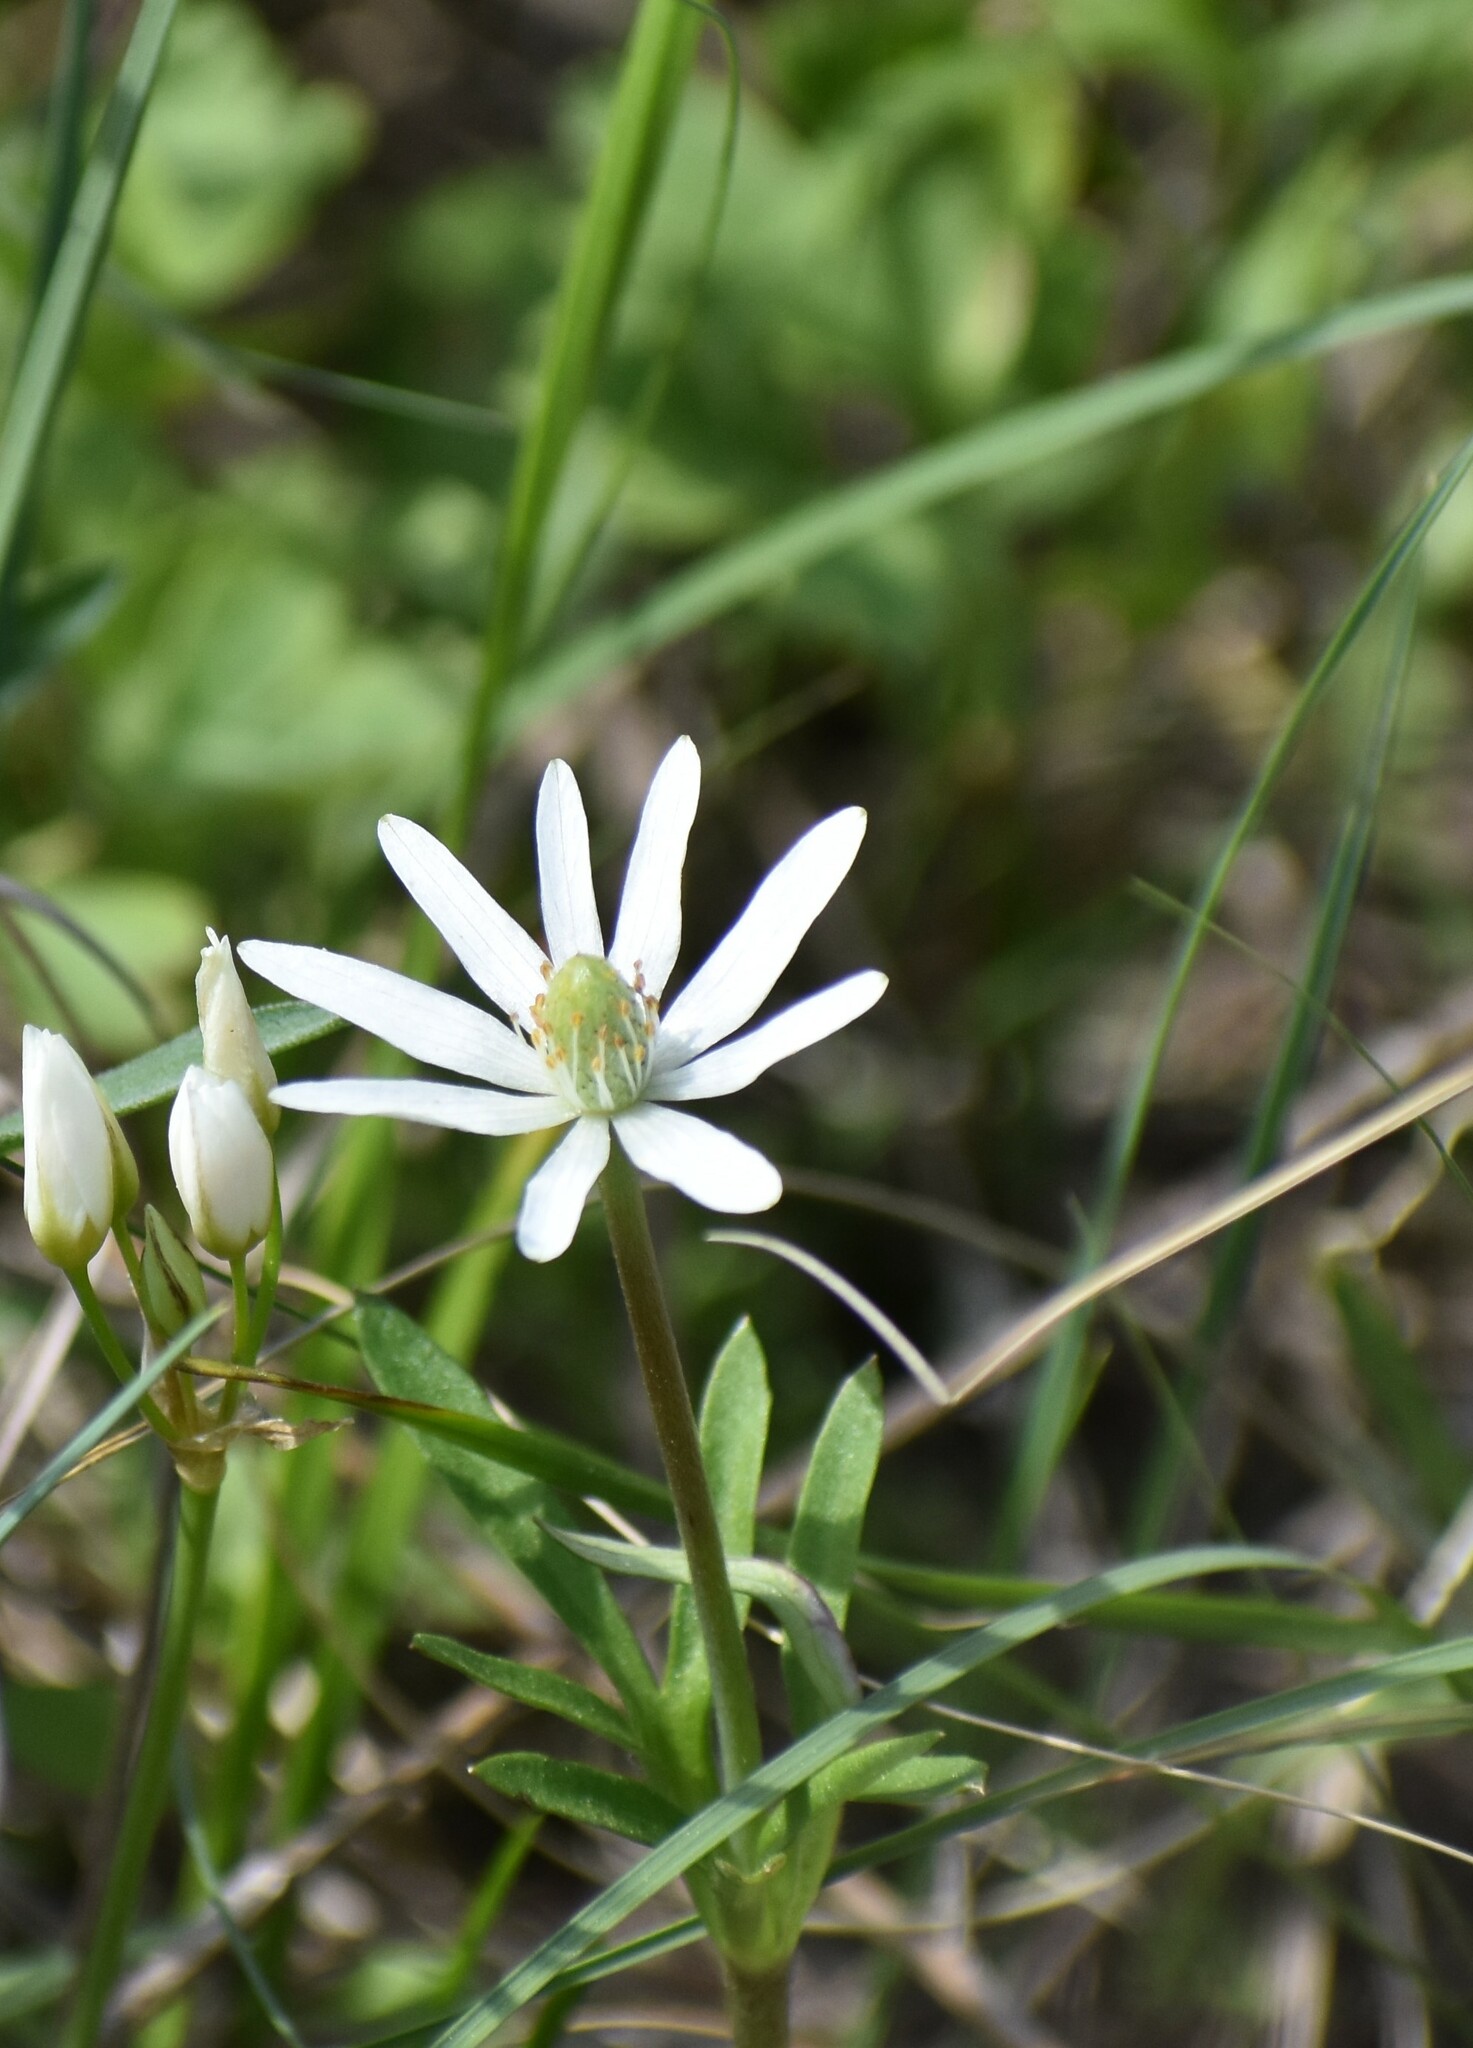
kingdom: Plantae
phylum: Tracheophyta
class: Magnoliopsida
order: Ranunculales
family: Ranunculaceae
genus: Anemone
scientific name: Anemone berlandieri
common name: Ten-petal anemone
